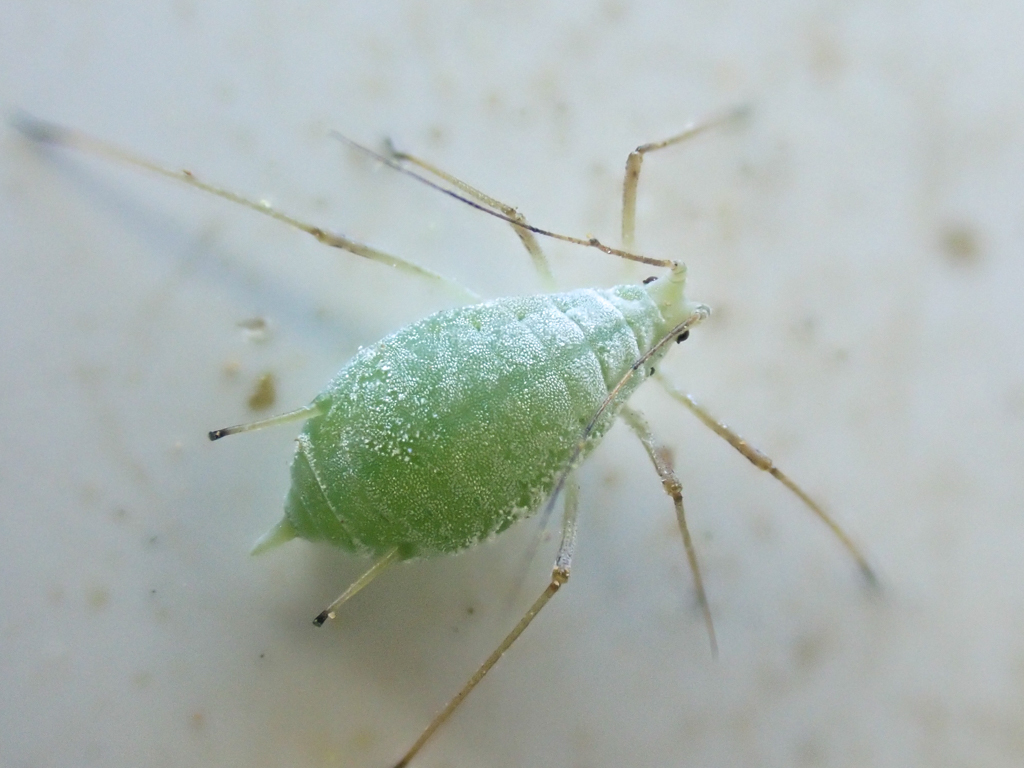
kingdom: Animalia
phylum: Arthropoda
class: Insecta
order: Hemiptera
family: Aphididae
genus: Macrosiphum
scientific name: Macrosiphum albifrons
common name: Lupine aphid
